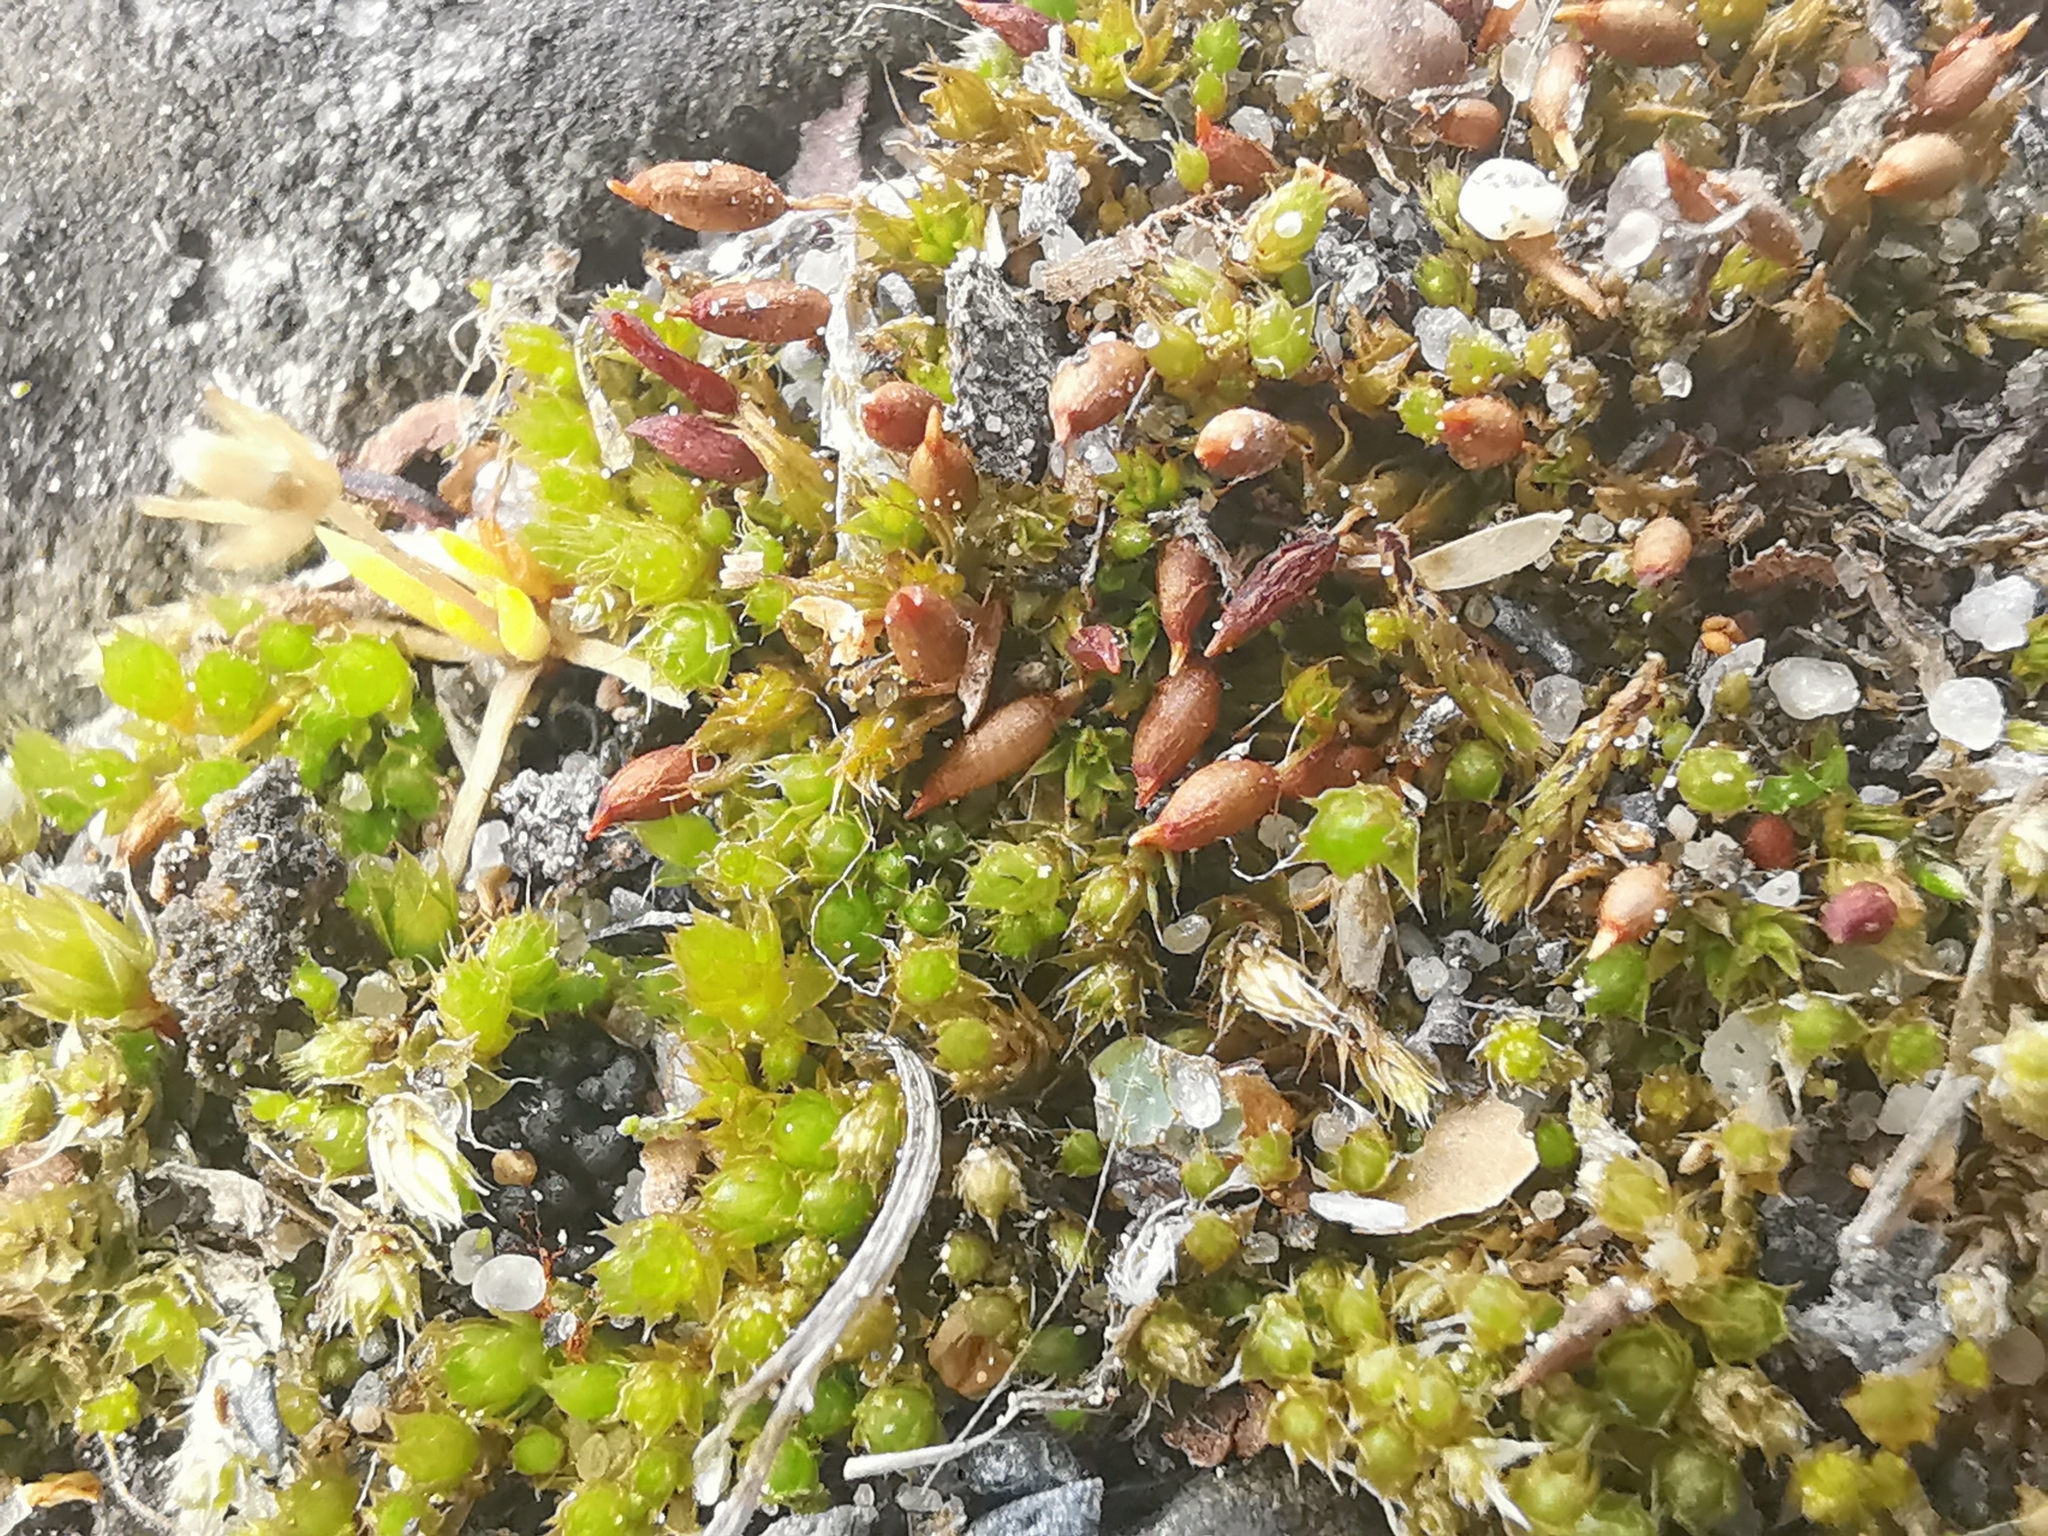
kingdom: Plantae
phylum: Bryophyta
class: Bryopsida
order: Pottiales
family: Pottiaceae
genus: Tortula
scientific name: Tortula protobryoides
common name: Tall pottia
